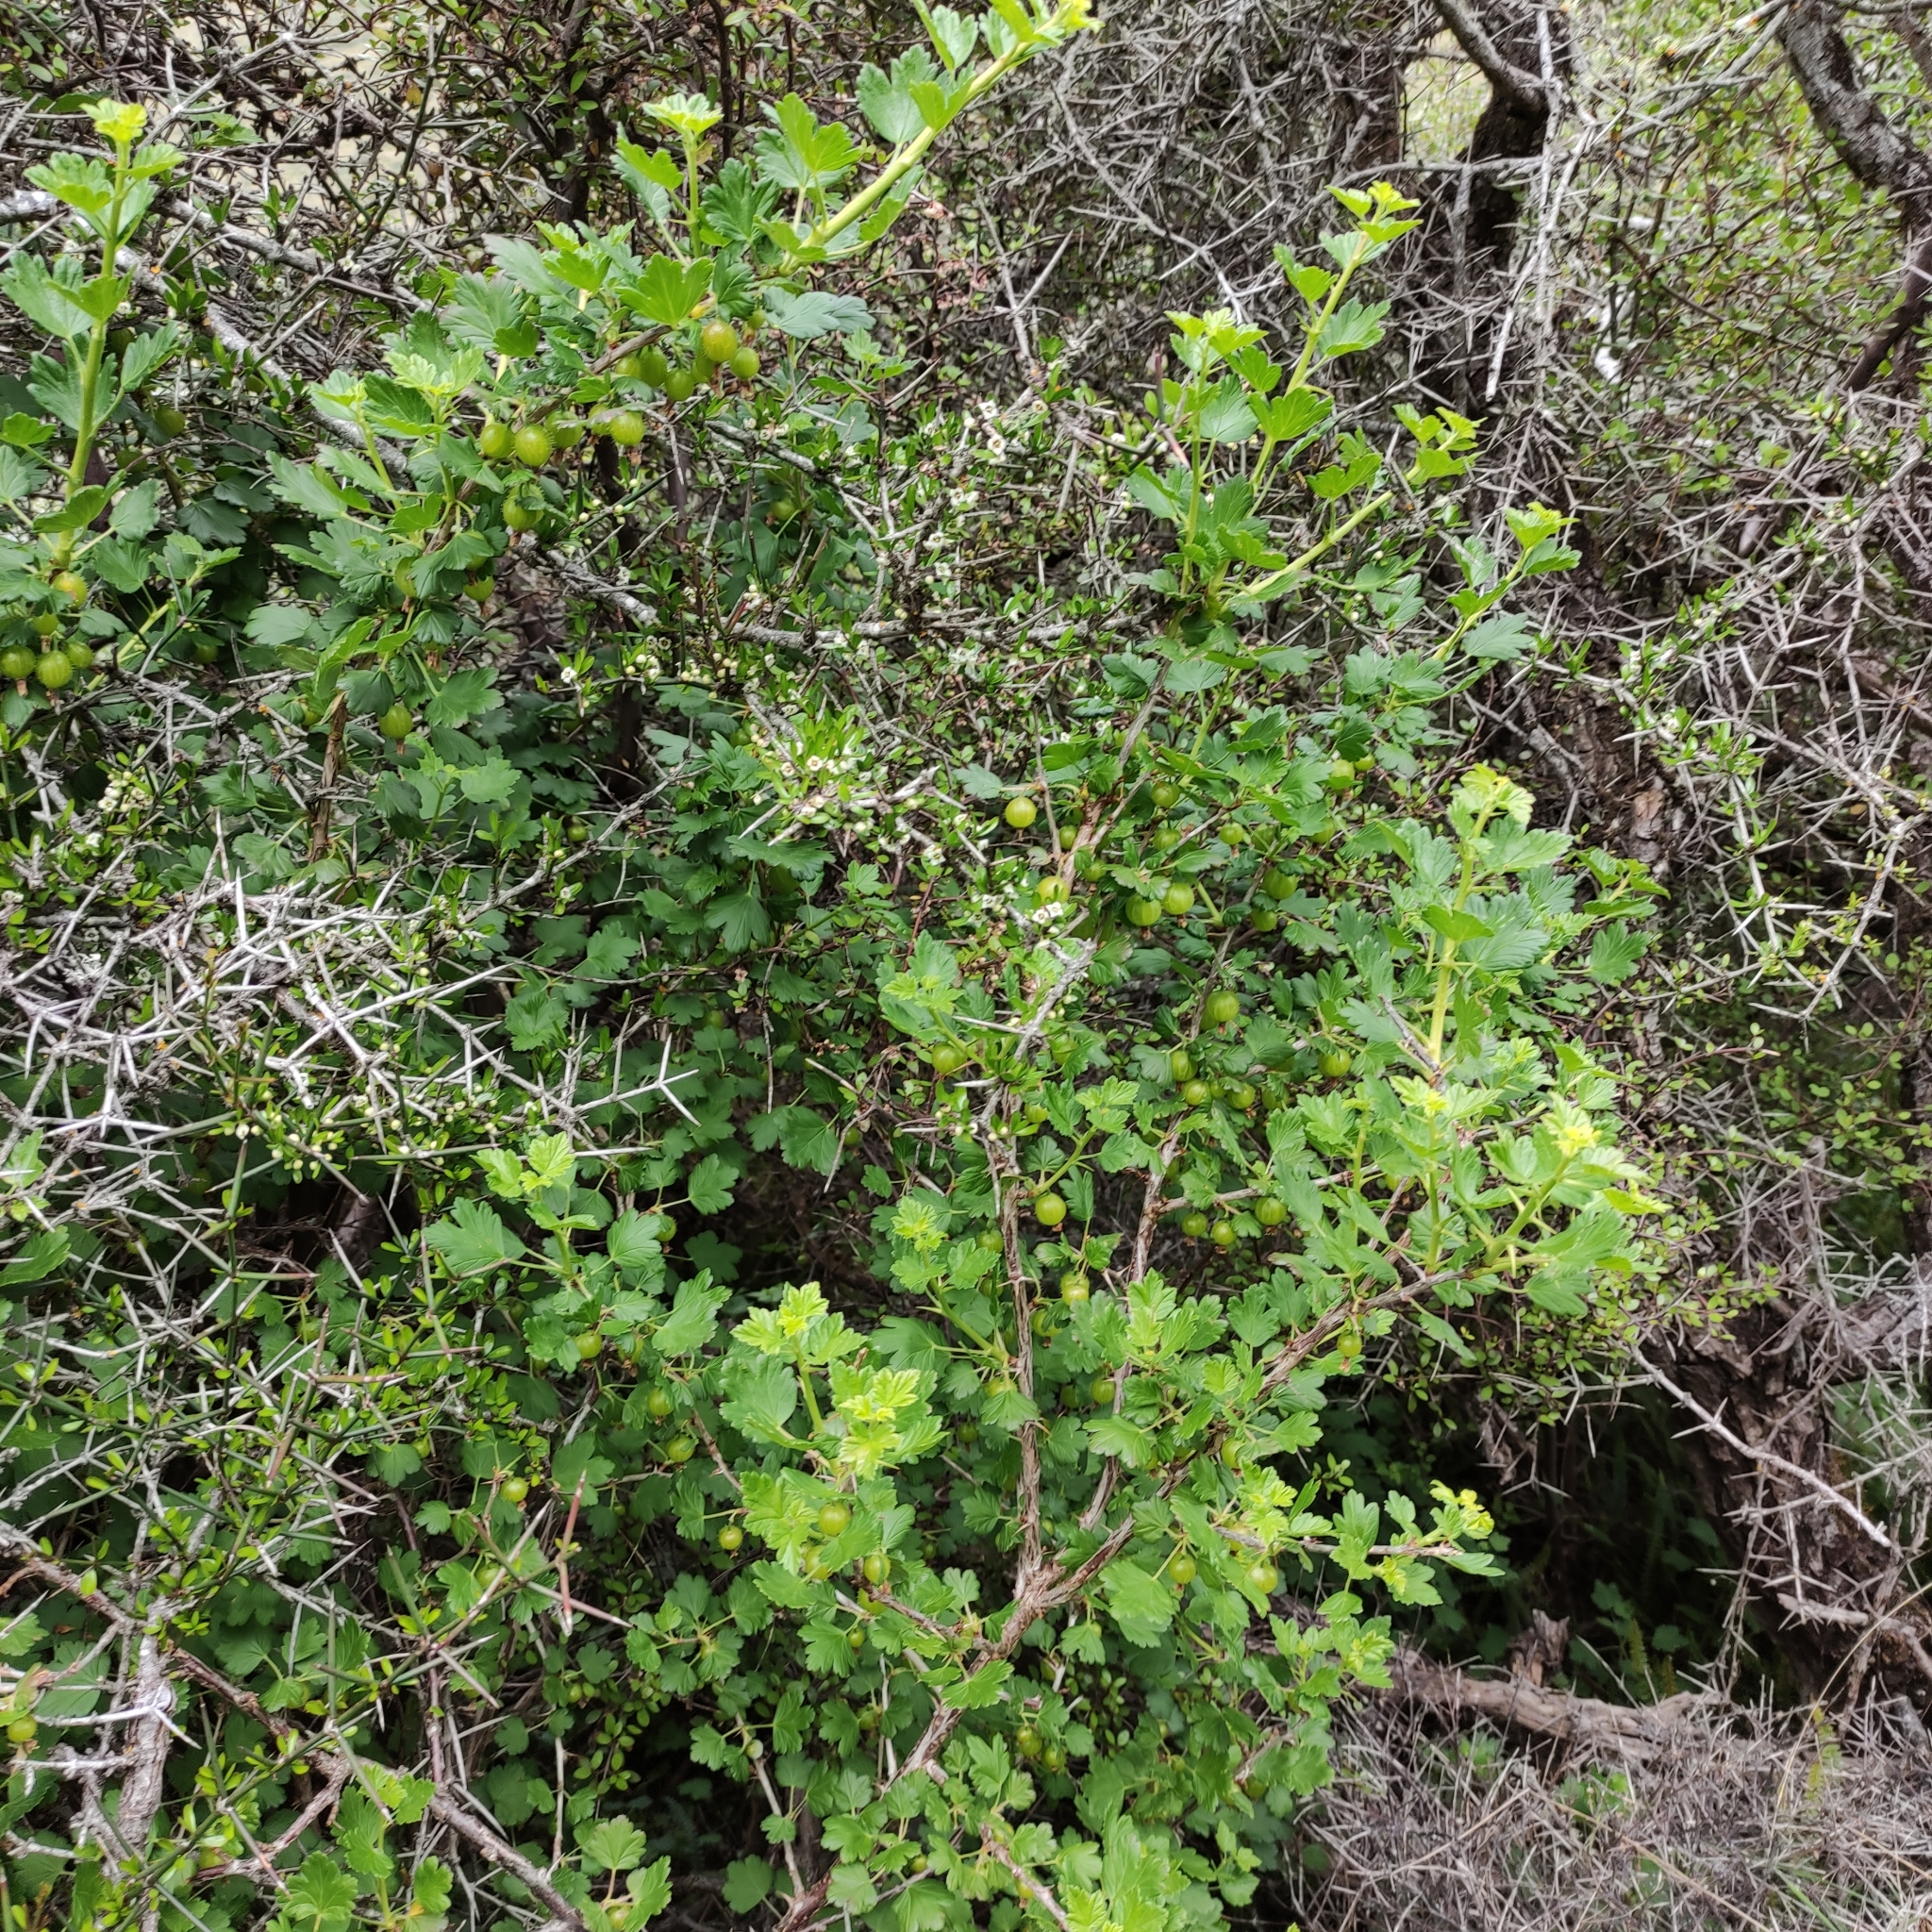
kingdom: Plantae
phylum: Tracheophyta
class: Magnoliopsida
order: Saxifragales
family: Grossulariaceae
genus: Ribes
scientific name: Ribes uva-crispa
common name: Gooseberry
